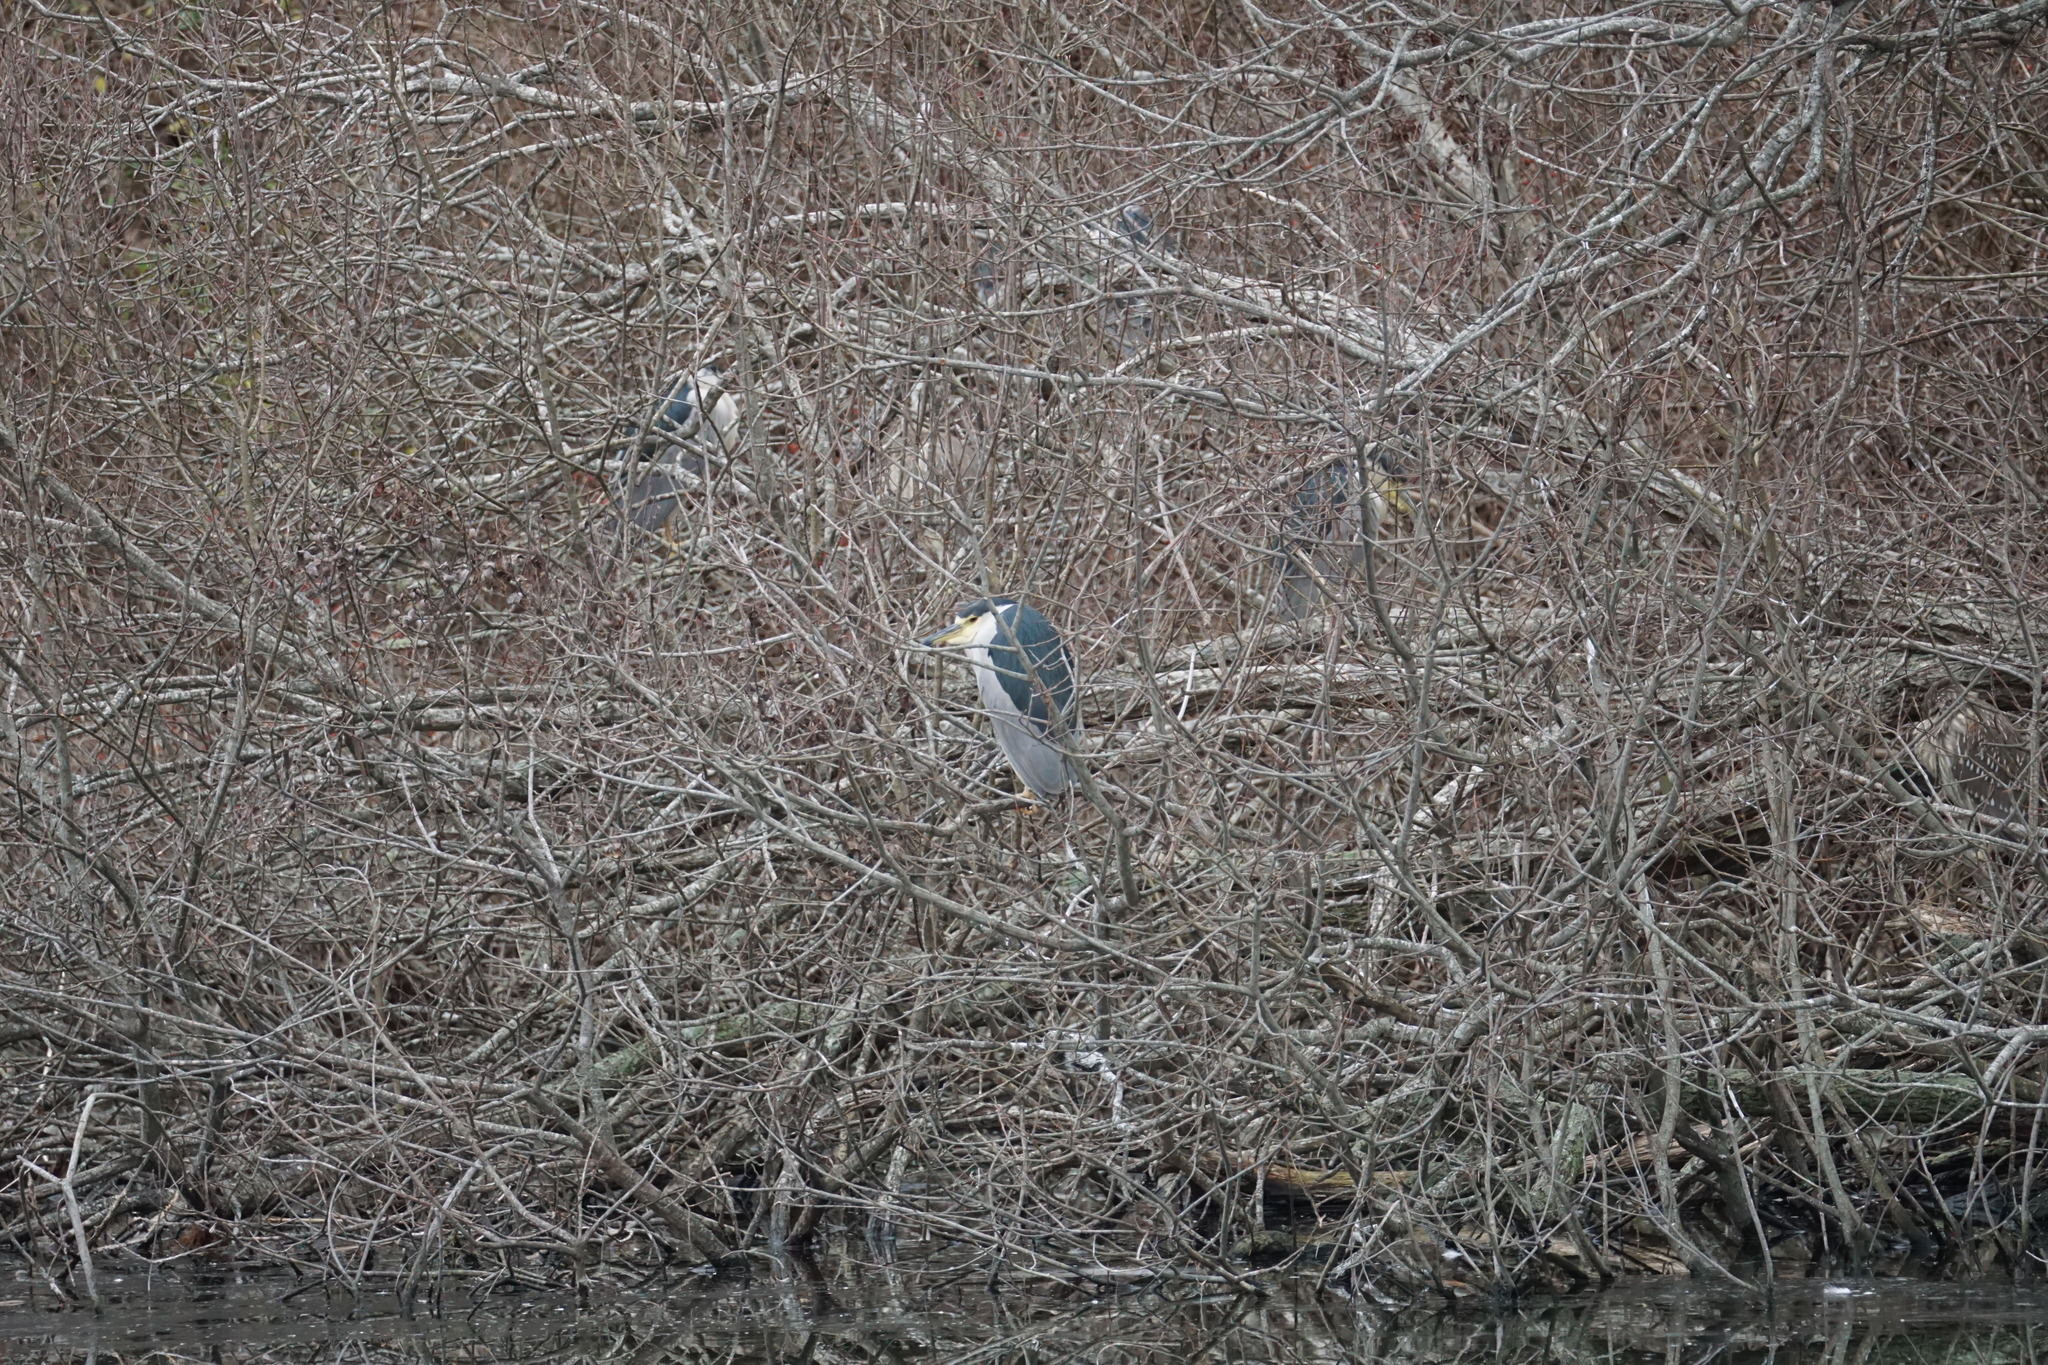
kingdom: Animalia
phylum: Chordata
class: Aves
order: Pelecaniformes
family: Ardeidae
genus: Nycticorax
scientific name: Nycticorax nycticorax
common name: Black-crowned night heron
